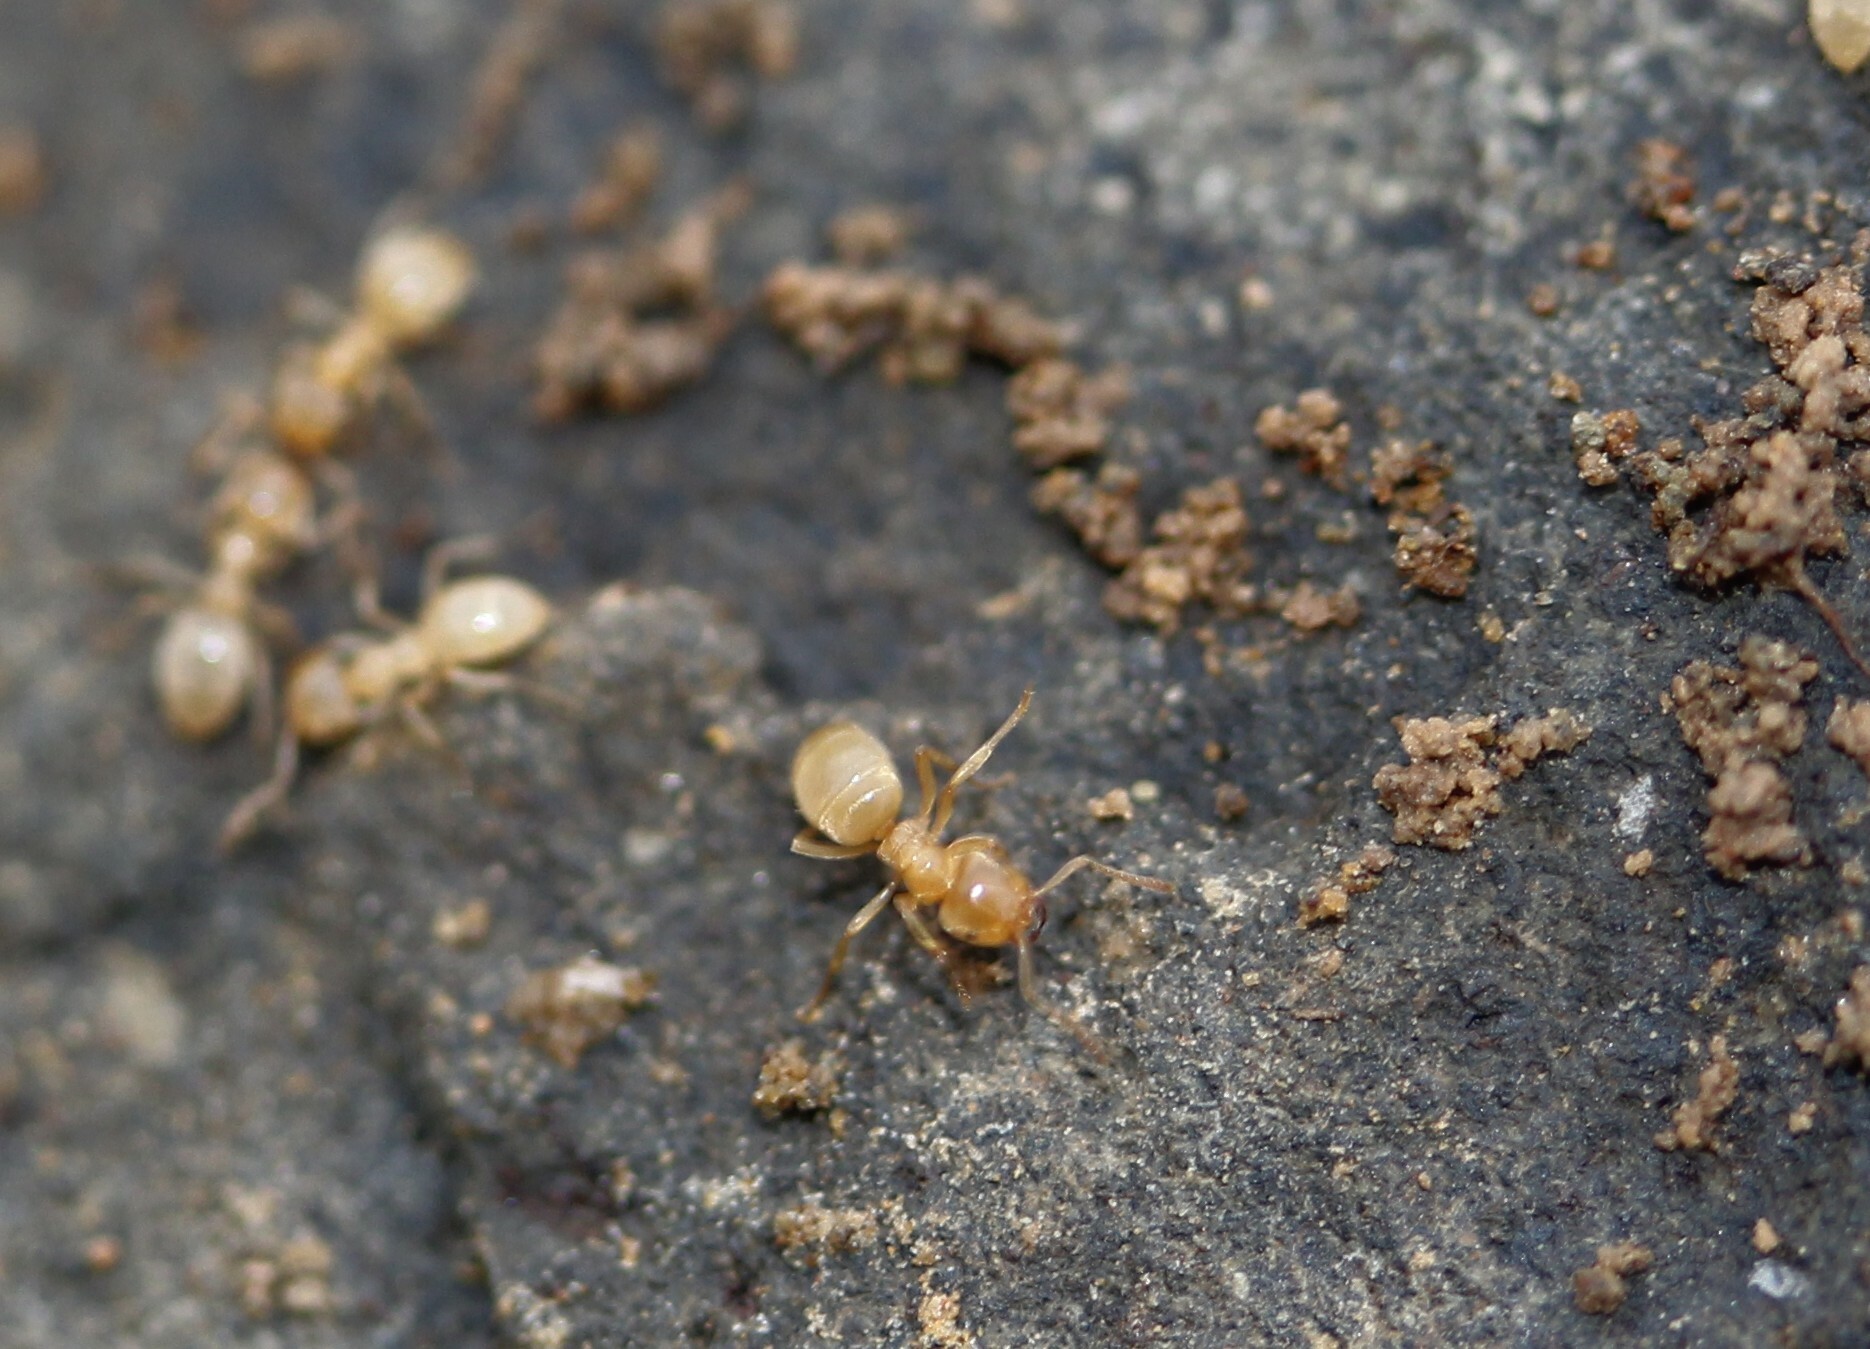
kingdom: Animalia
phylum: Arthropoda
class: Insecta
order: Hymenoptera
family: Formicidae
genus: Lasius
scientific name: Lasius
